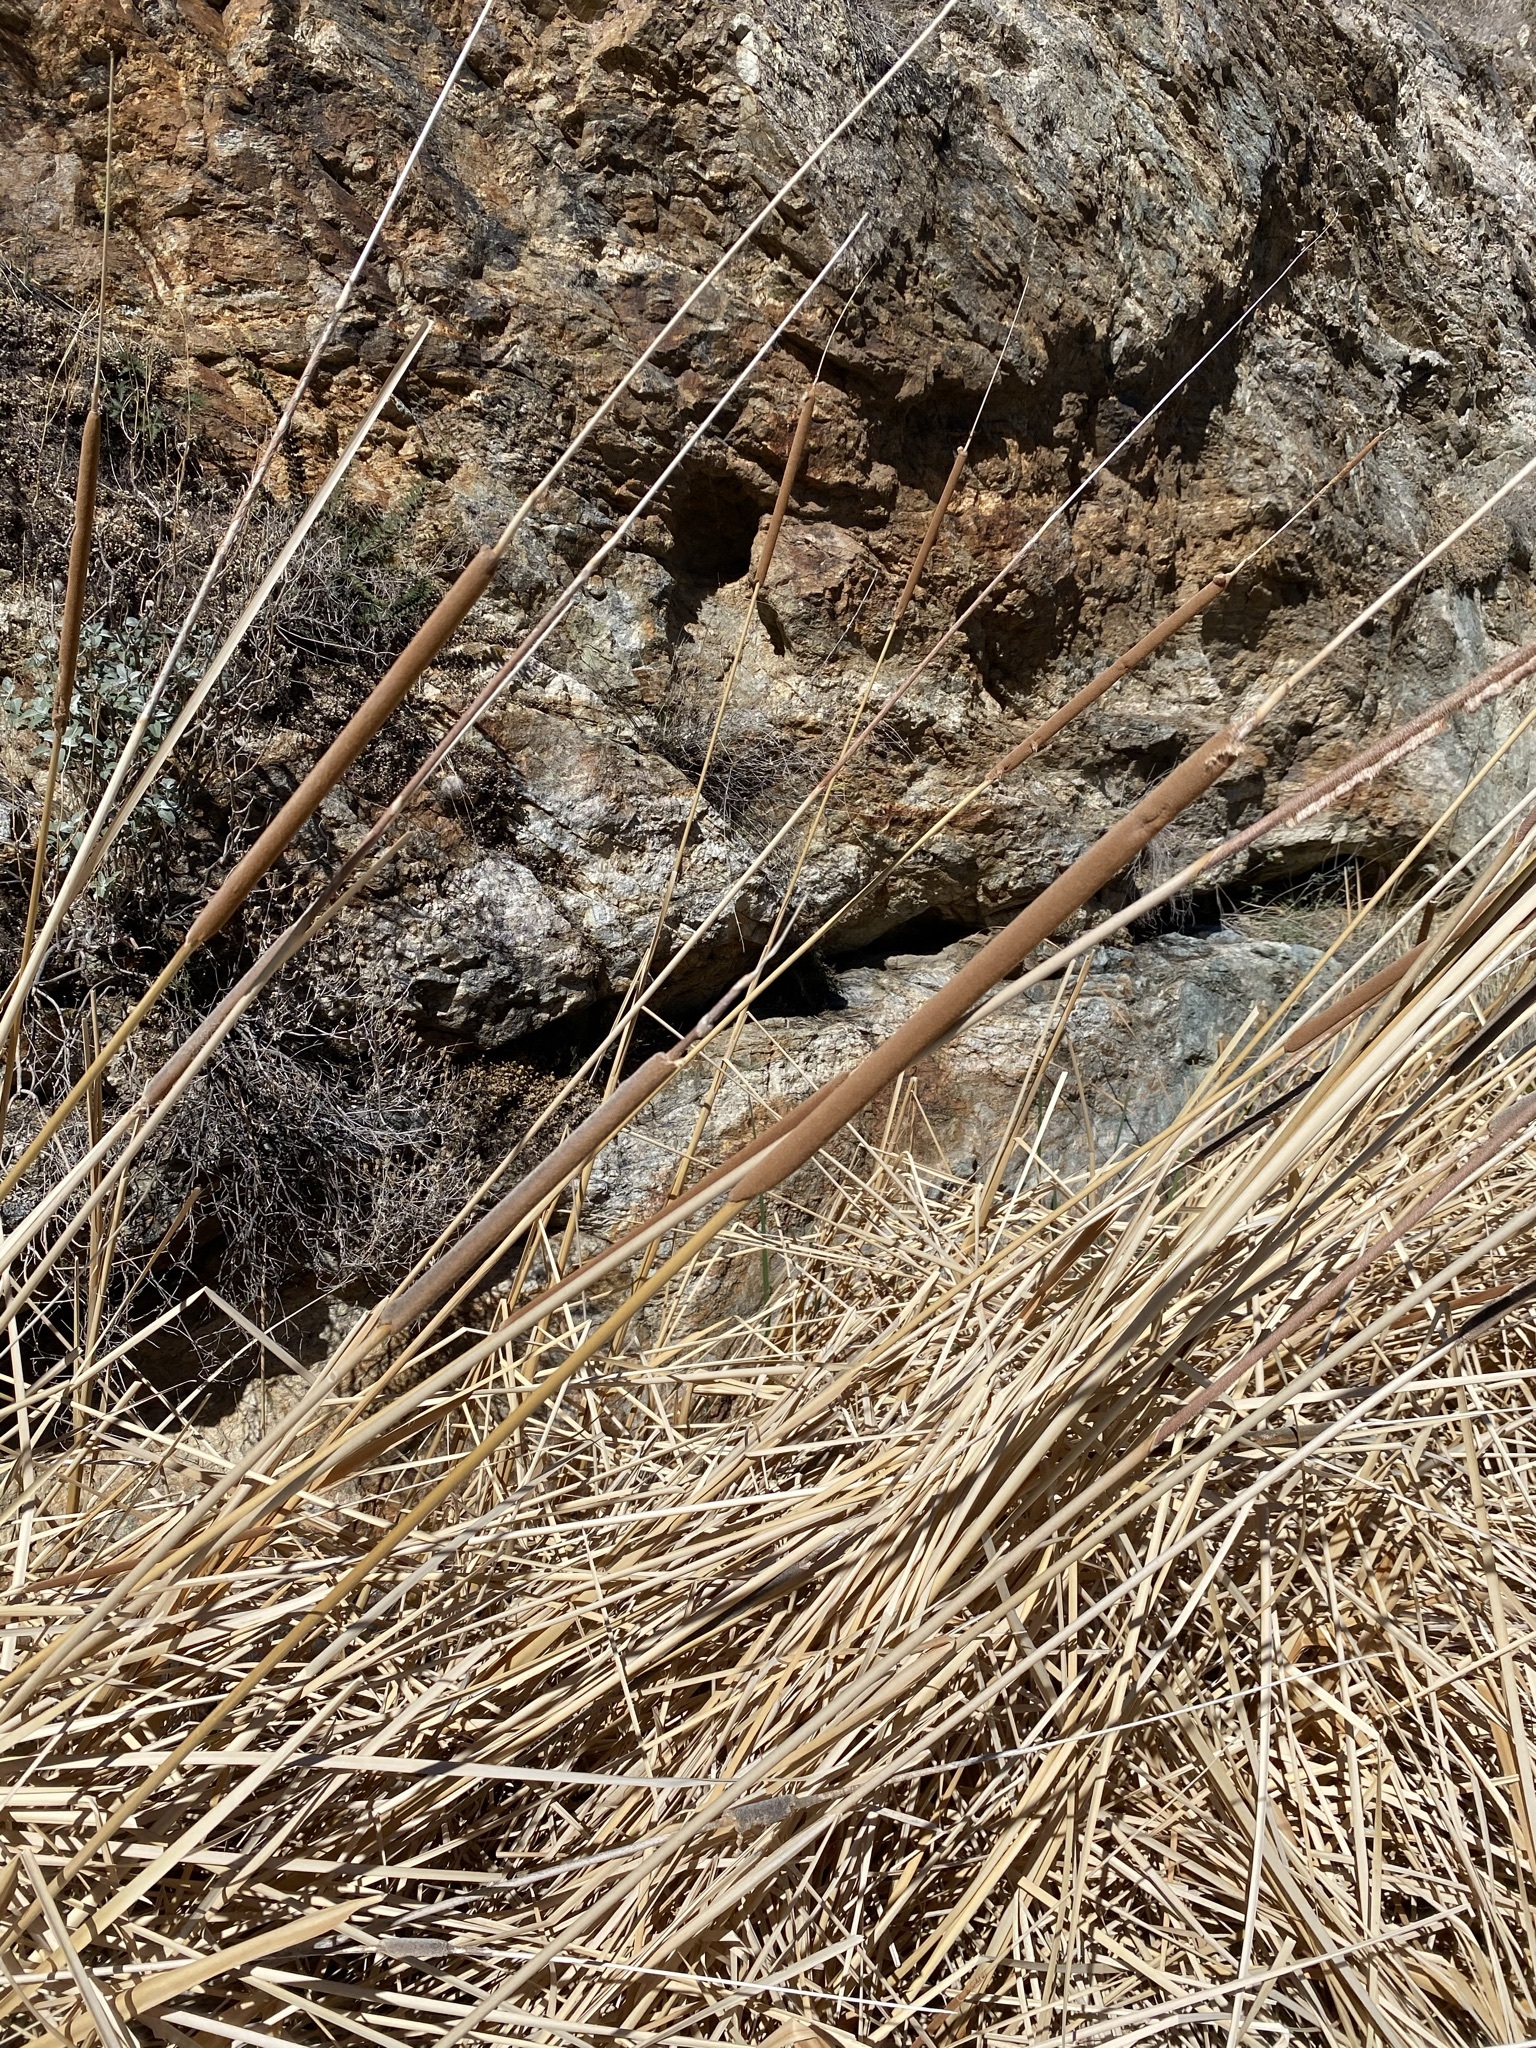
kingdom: Plantae
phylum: Tracheophyta
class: Liliopsida
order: Poales
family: Typhaceae
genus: Typha
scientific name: Typha domingensis
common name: Southern cattail
